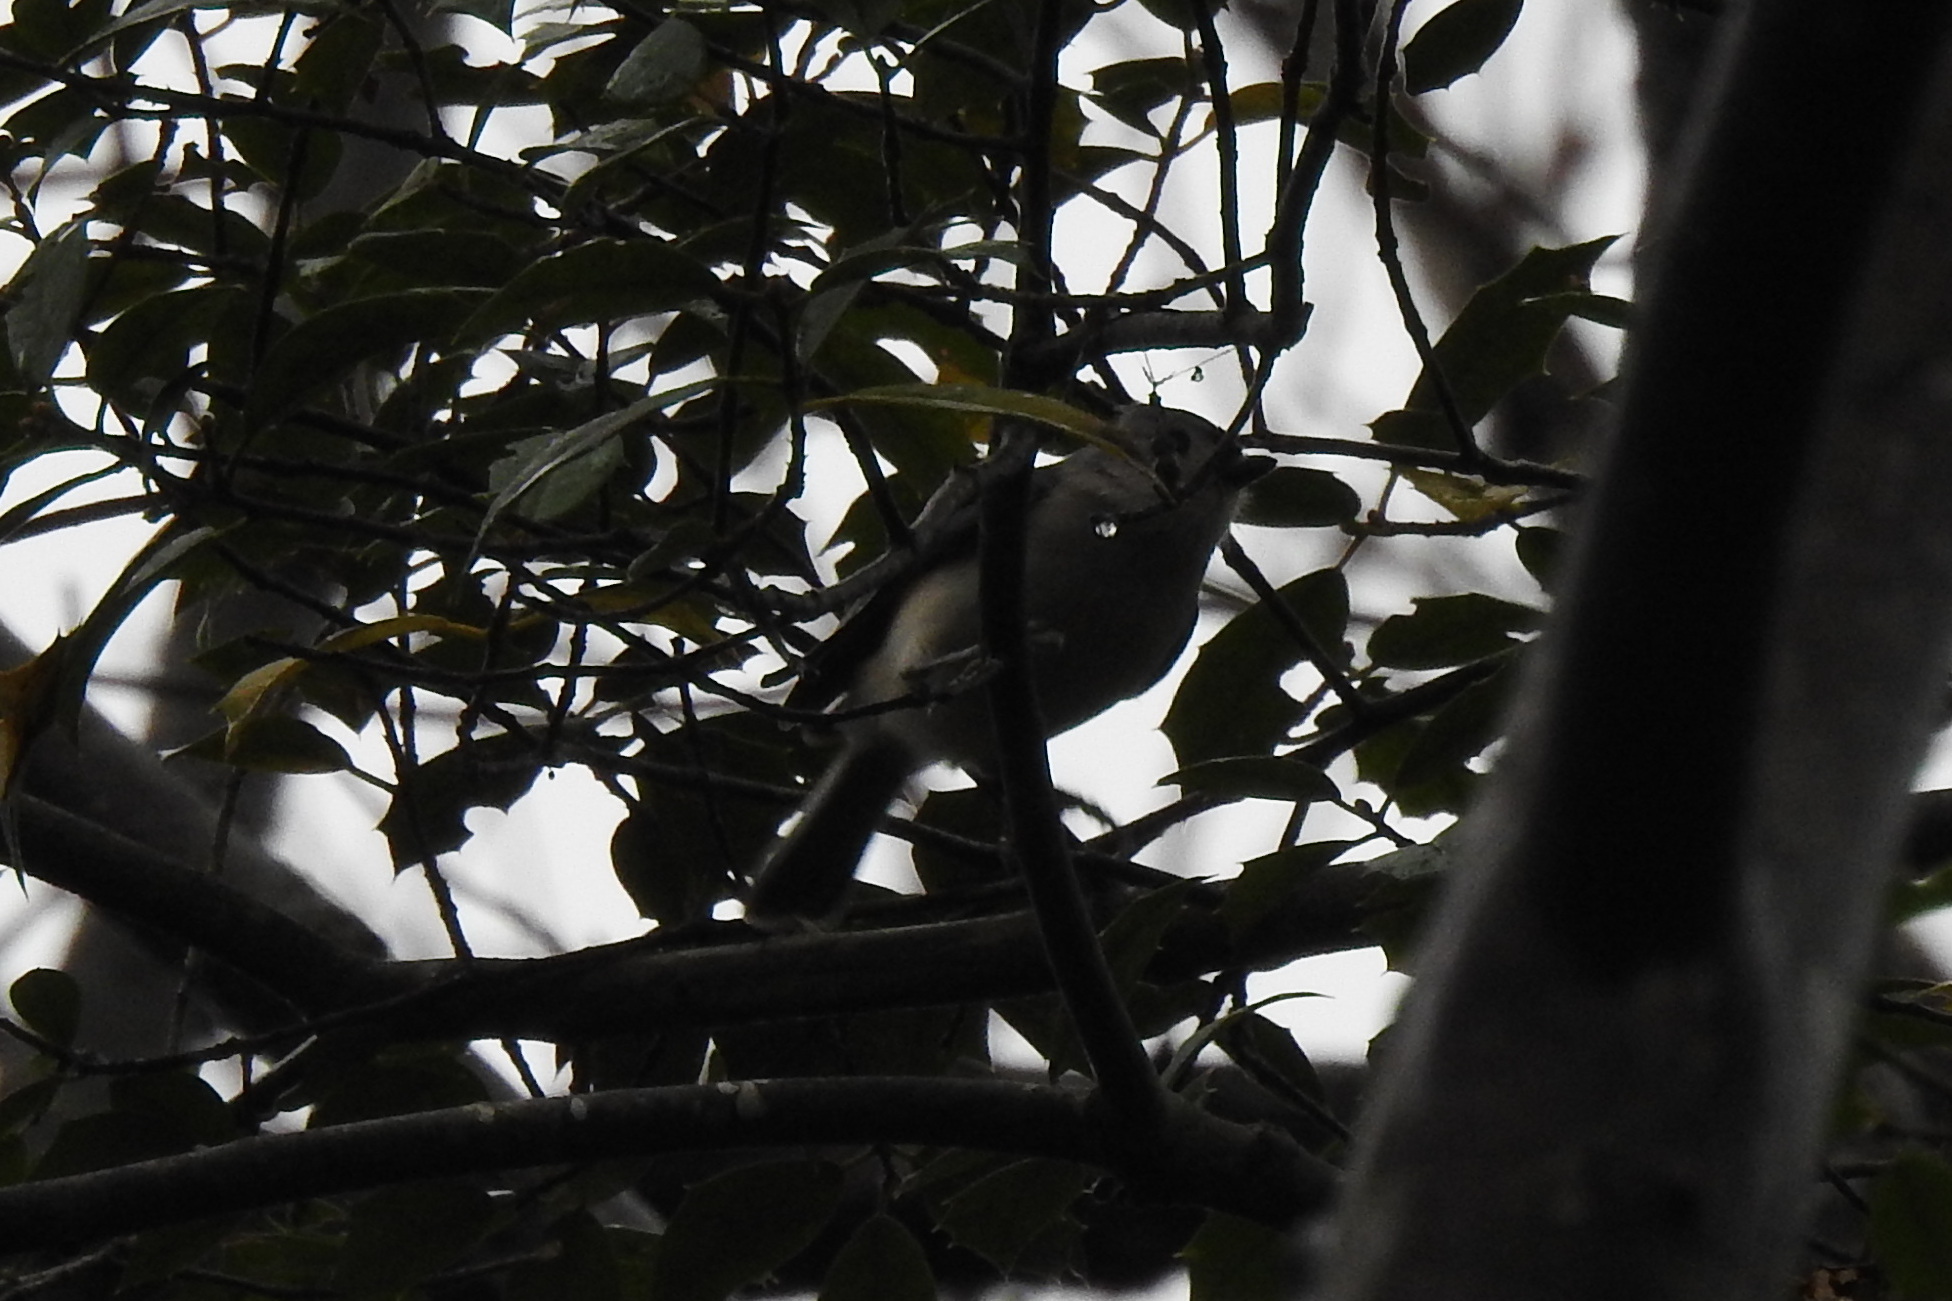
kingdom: Animalia
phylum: Chordata
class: Aves
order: Passeriformes
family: Paridae
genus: Baeolophus
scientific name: Baeolophus bicolor
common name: Tufted titmouse
